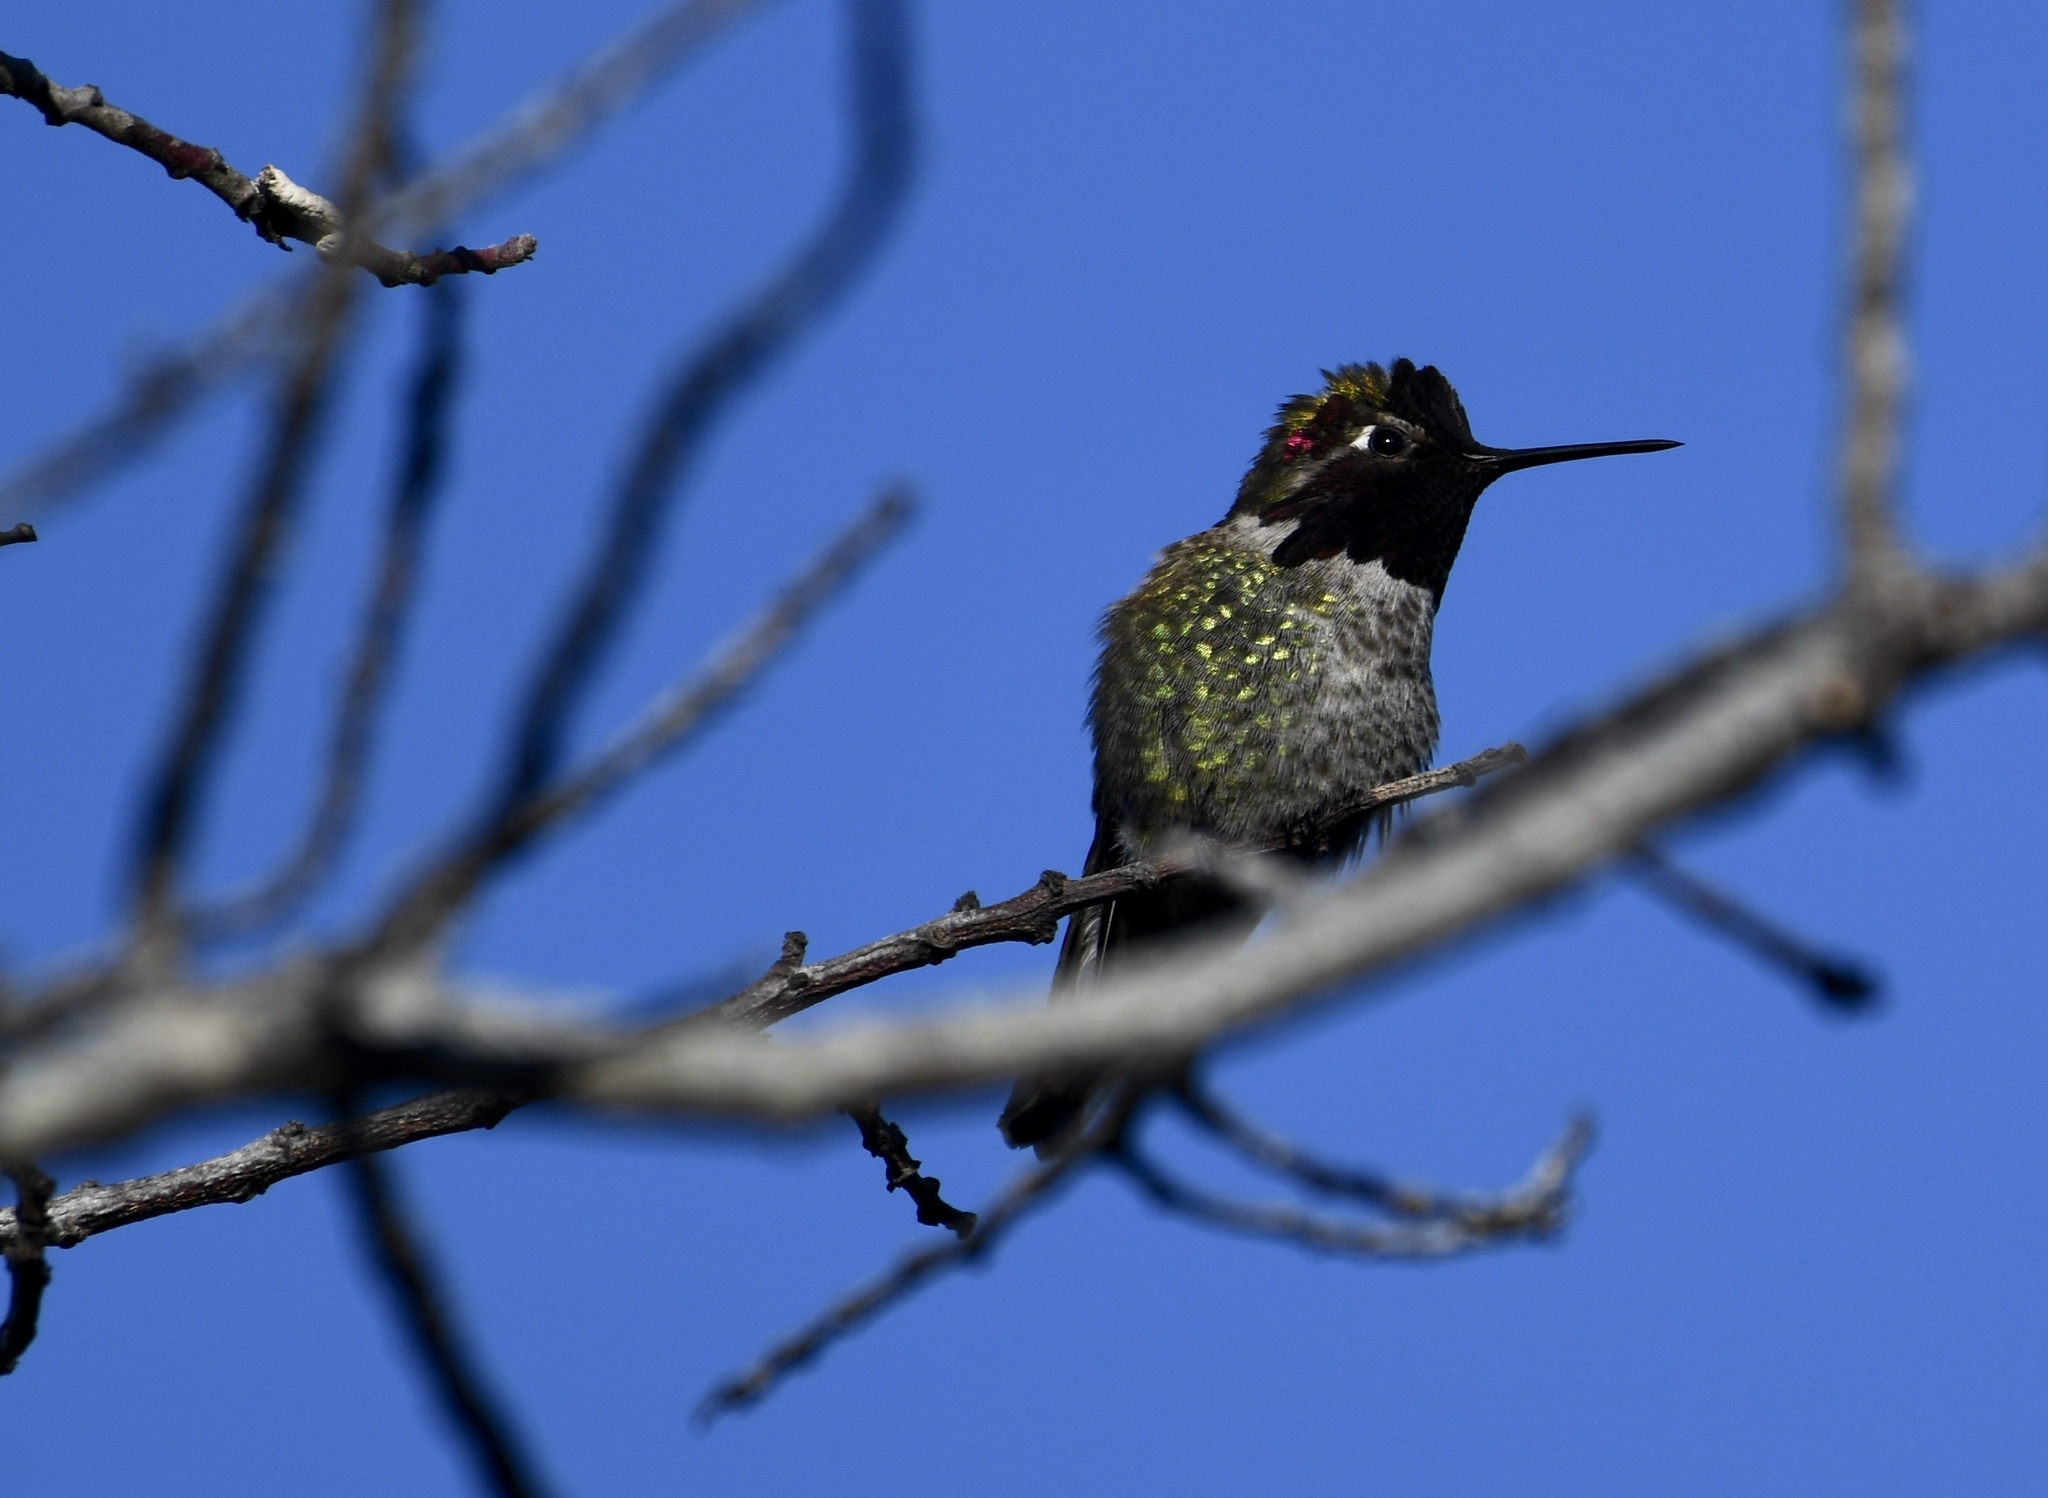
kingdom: Animalia
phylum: Chordata
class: Aves
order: Apodiformes
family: Trochilidae
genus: Calypte
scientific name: Calypte anna
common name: Anna's hummingbird
